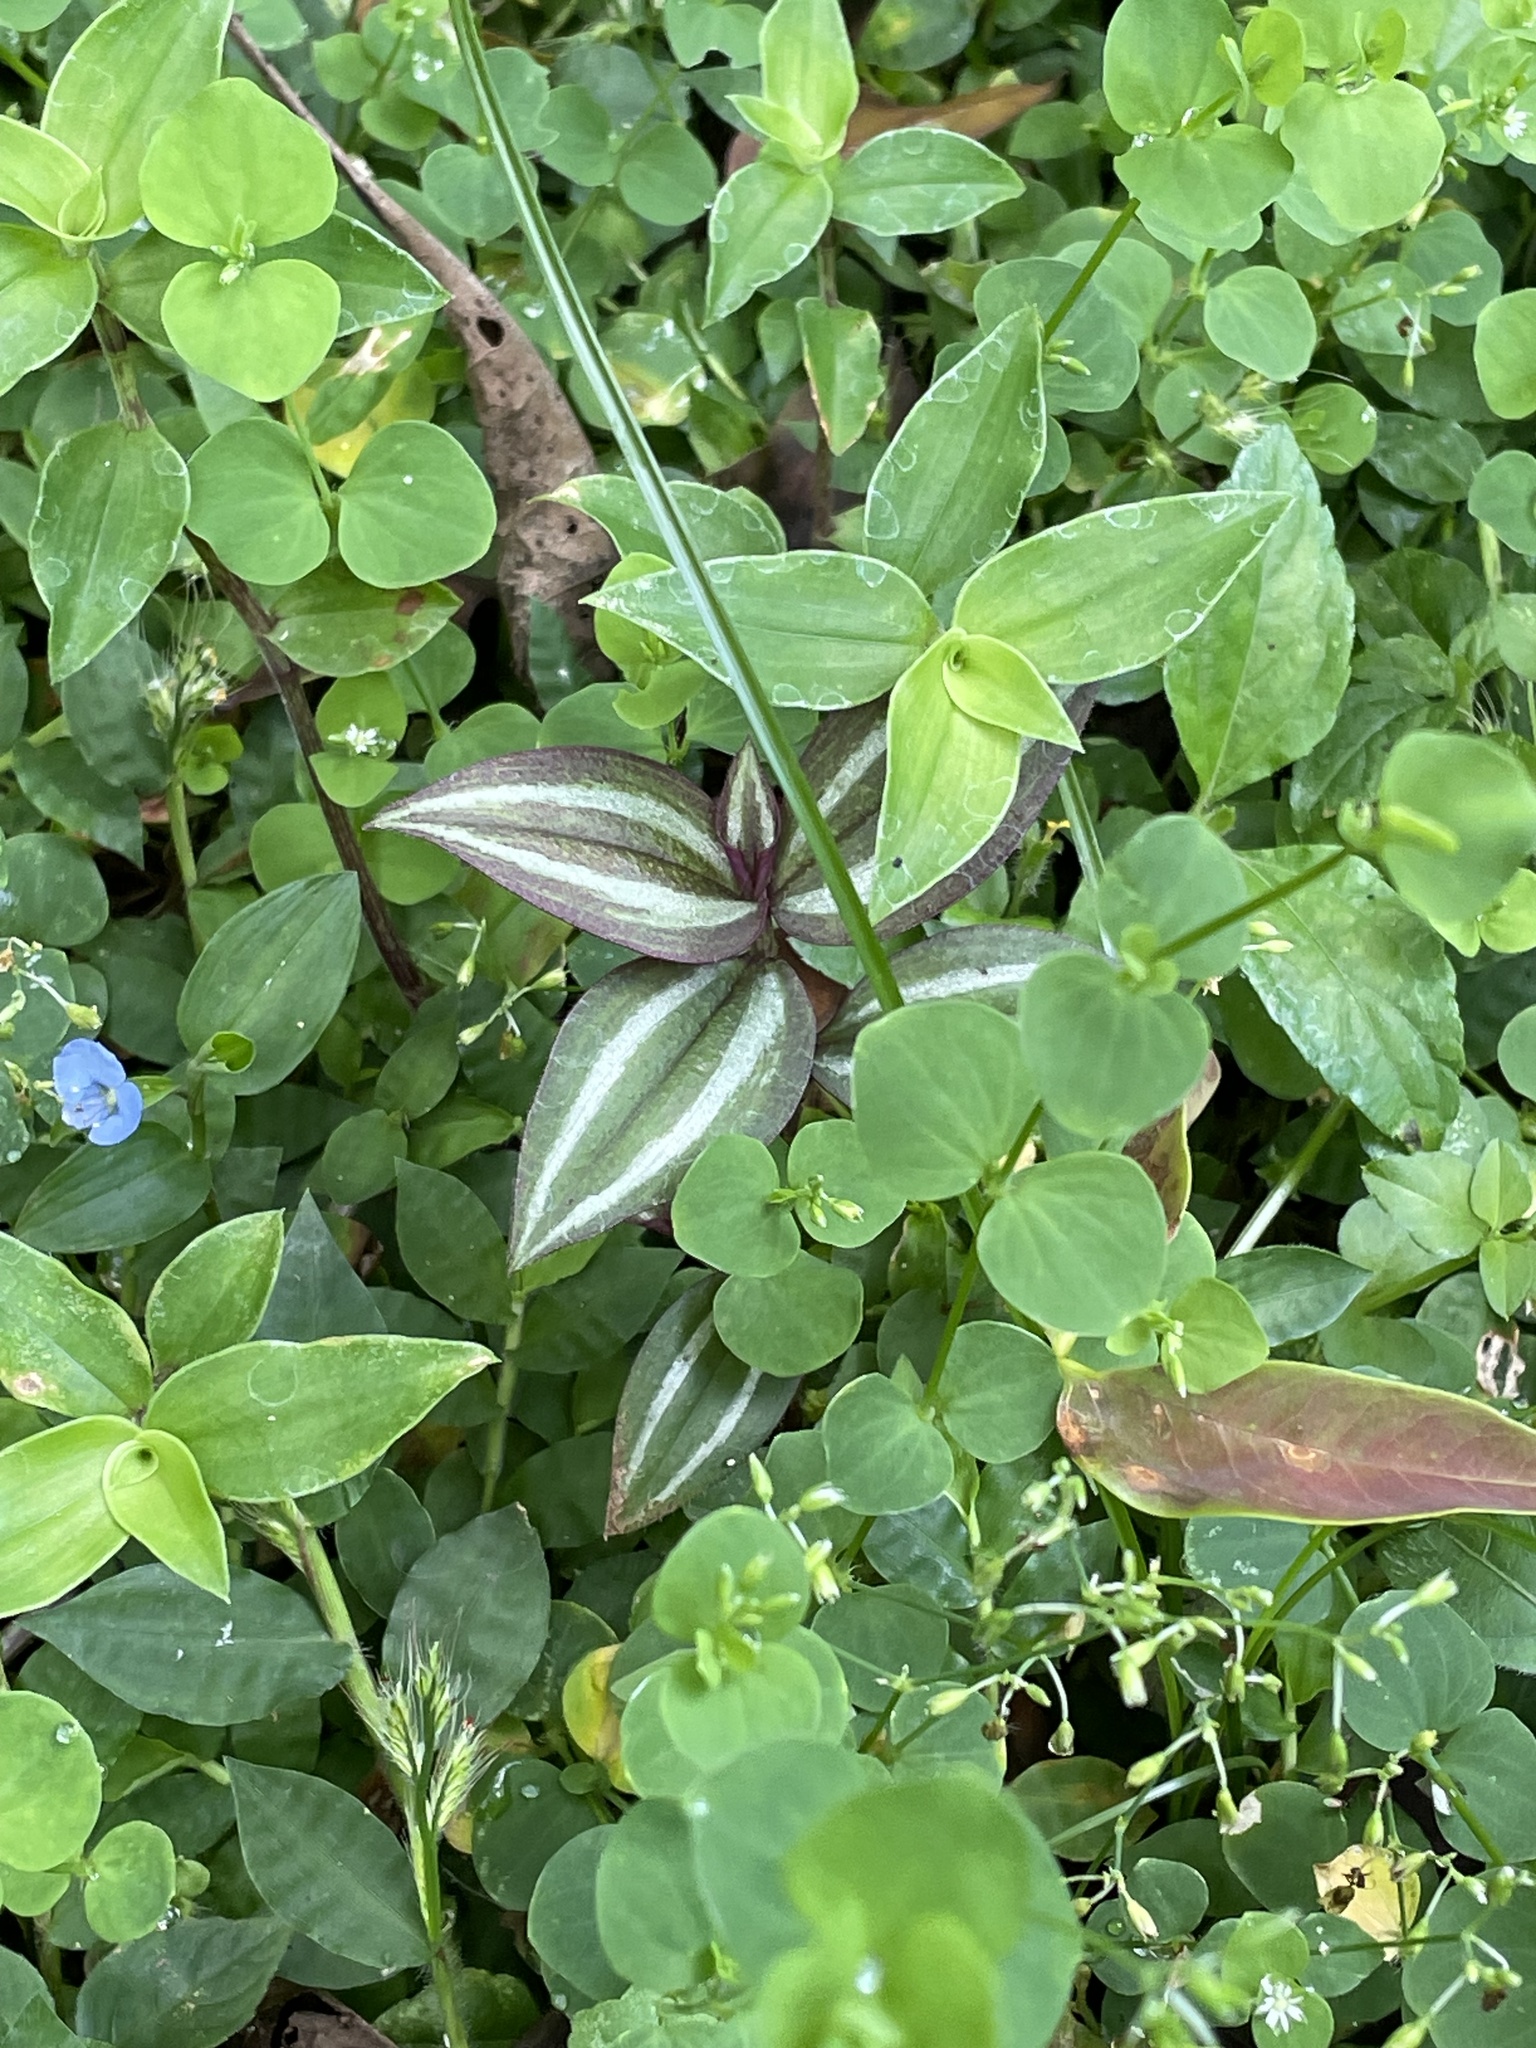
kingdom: Plantae
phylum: Tracheophyta
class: Liliopsida
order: Commelinales
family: Commelinaceae
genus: Tradescantia
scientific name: Tradescantia zebrina
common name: Inchplant
